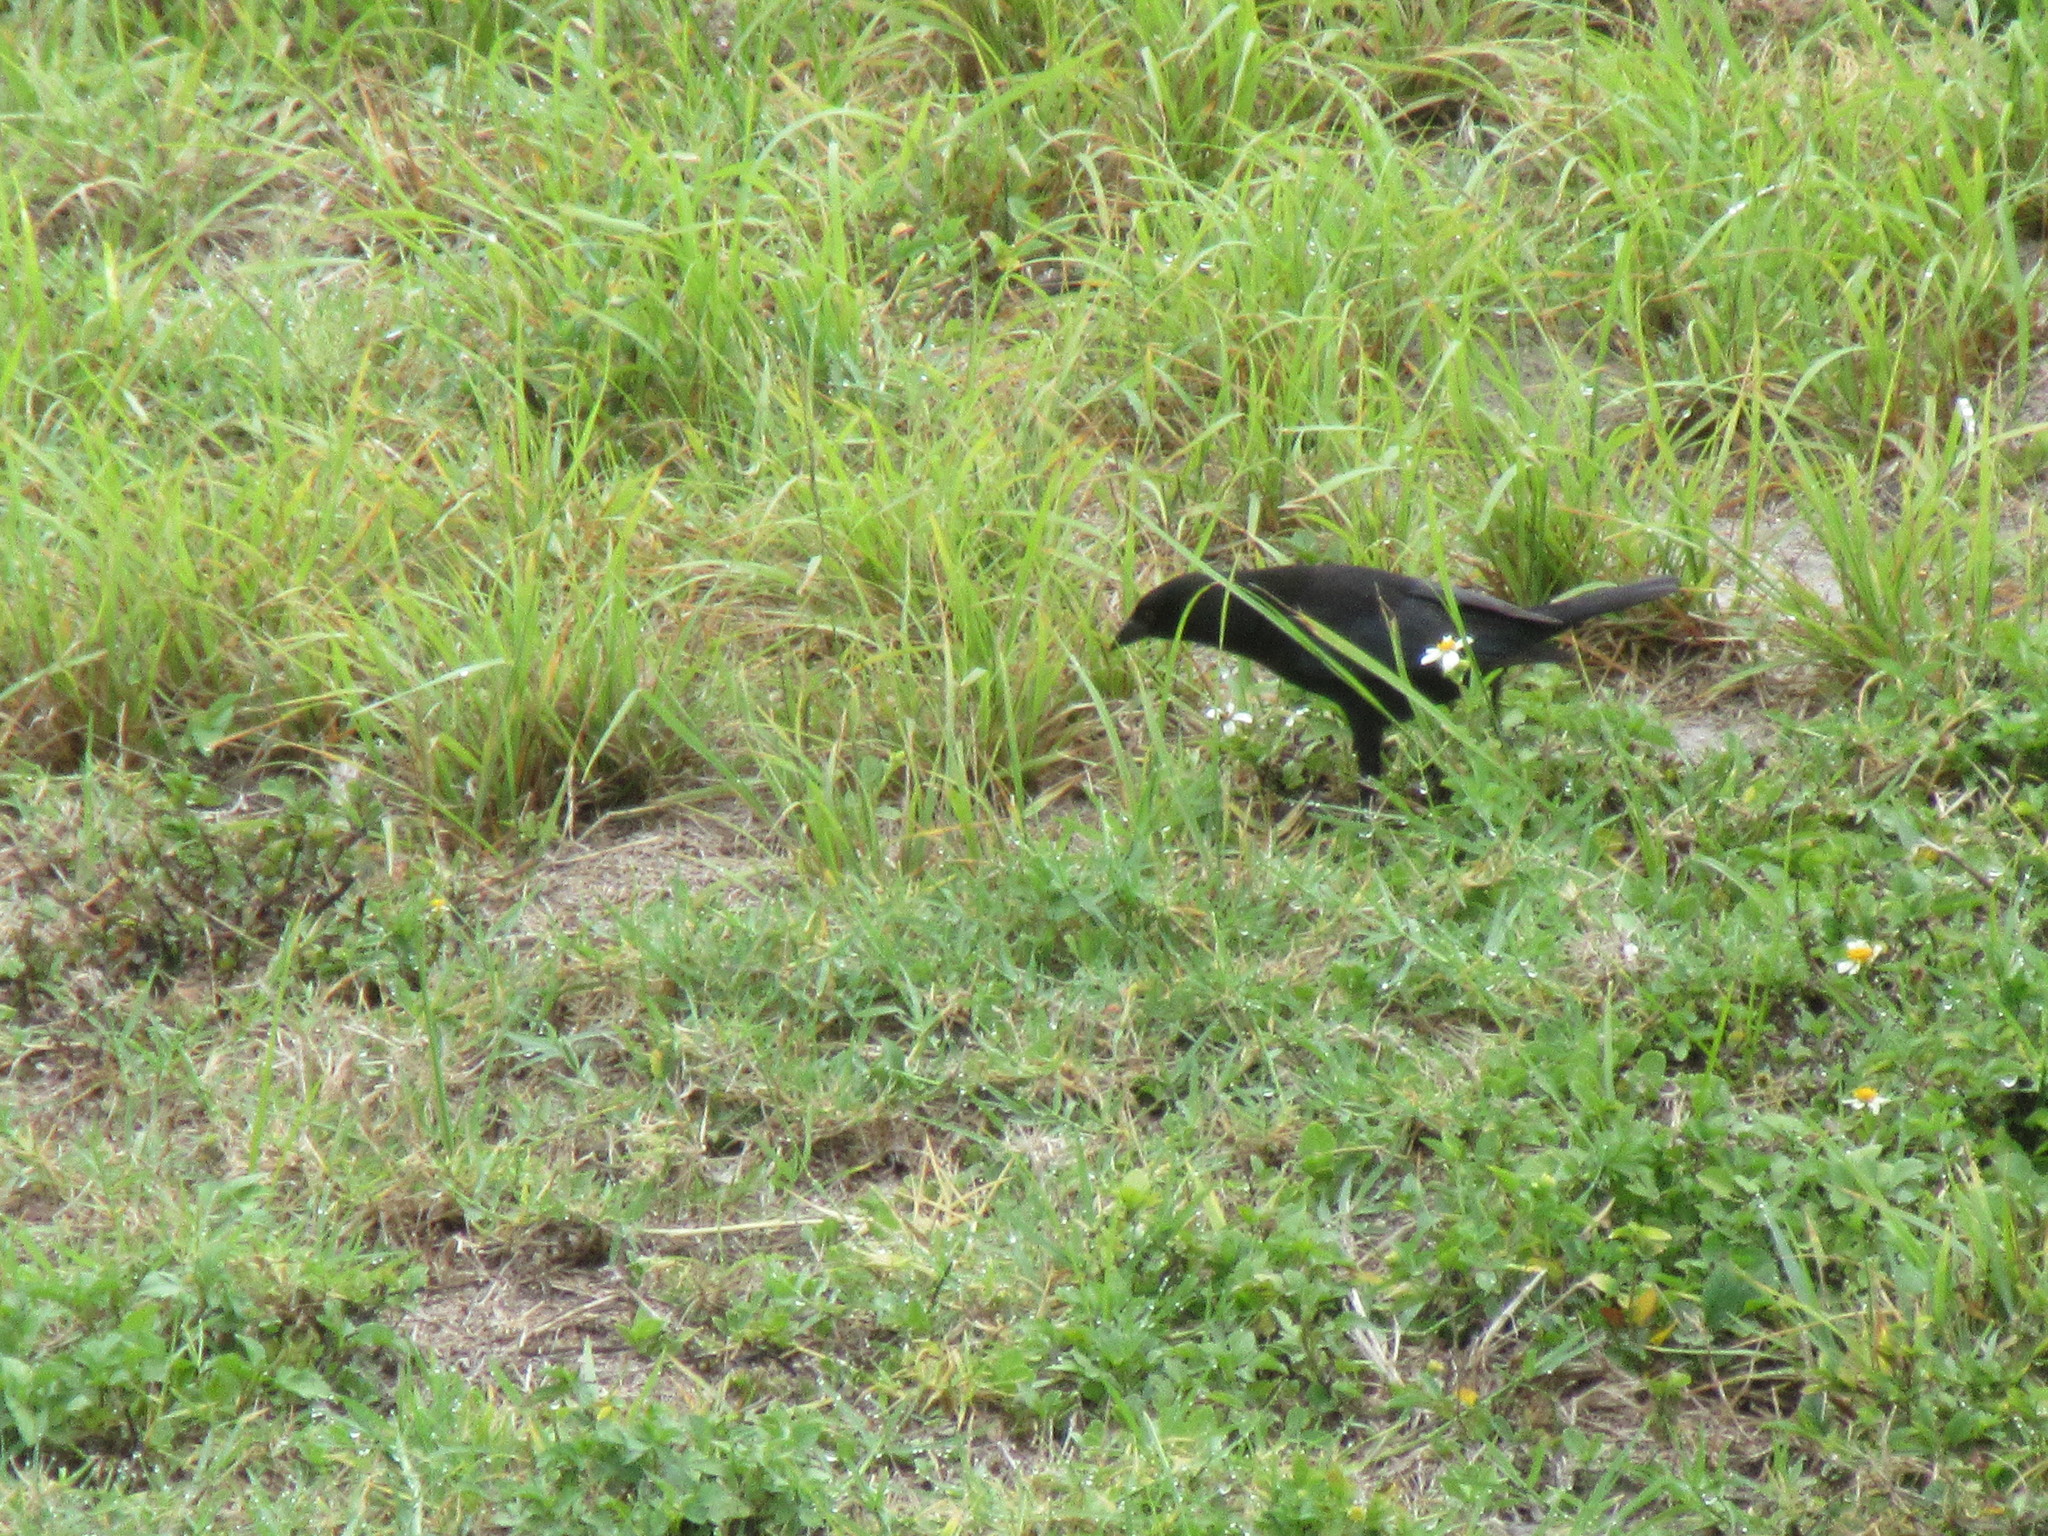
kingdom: Animalia
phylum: Chordata
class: Aves
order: Passeriformes
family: Icteridae
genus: Molothrus
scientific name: Molothrus aeneus
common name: Bronzed cowbird
